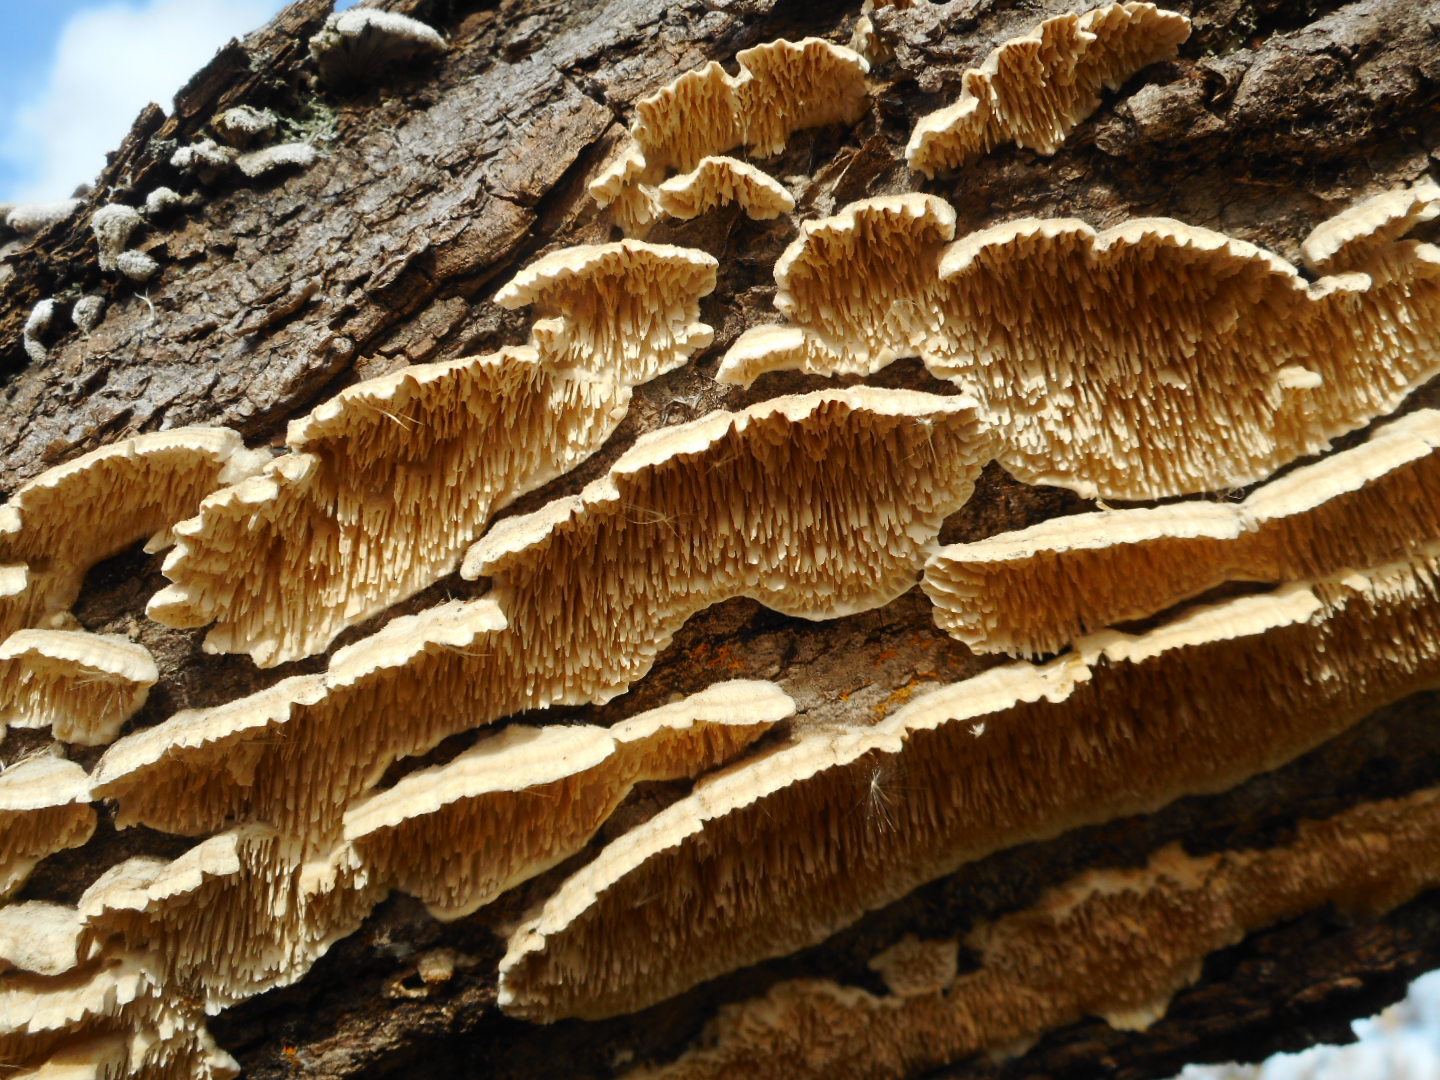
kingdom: Fungi
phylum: Basidiomycota
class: Agaricomycetes
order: Polyporales
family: Irpicaceae
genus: Irpex
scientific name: Irpex lacteus
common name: Milk-white toothed polypore
